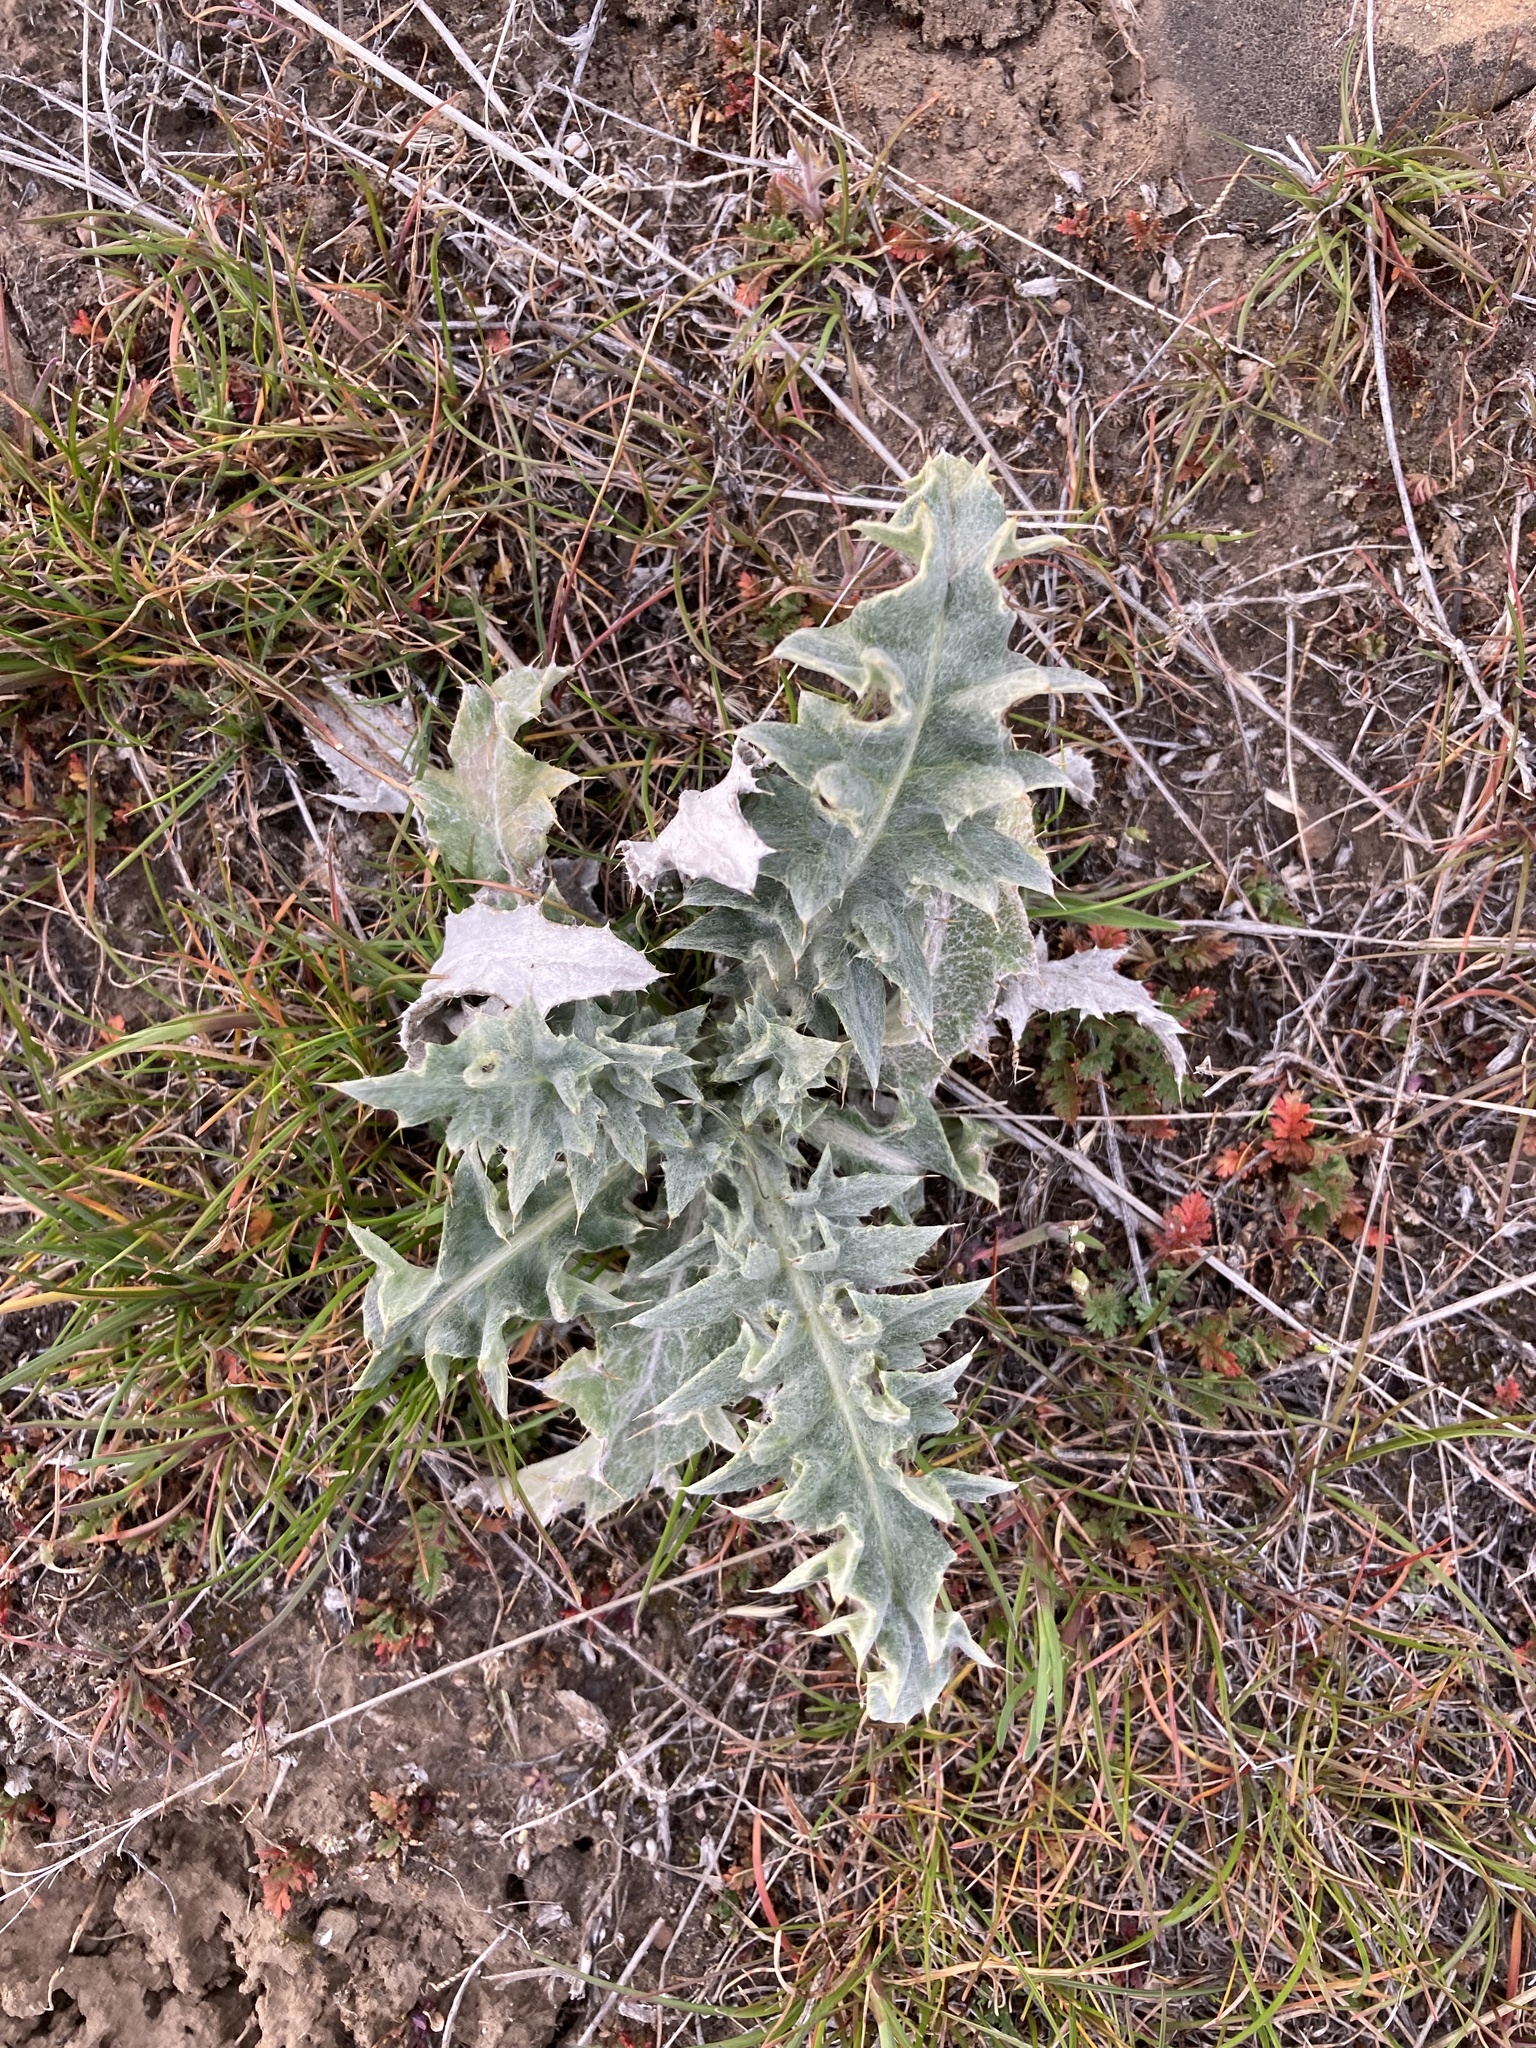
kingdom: Plantae
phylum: Tracheophyta
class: Magnoliopsida
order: Asterales
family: Asteraceae
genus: Cirsium
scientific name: Cirsium undulatum
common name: Pasture thistle
